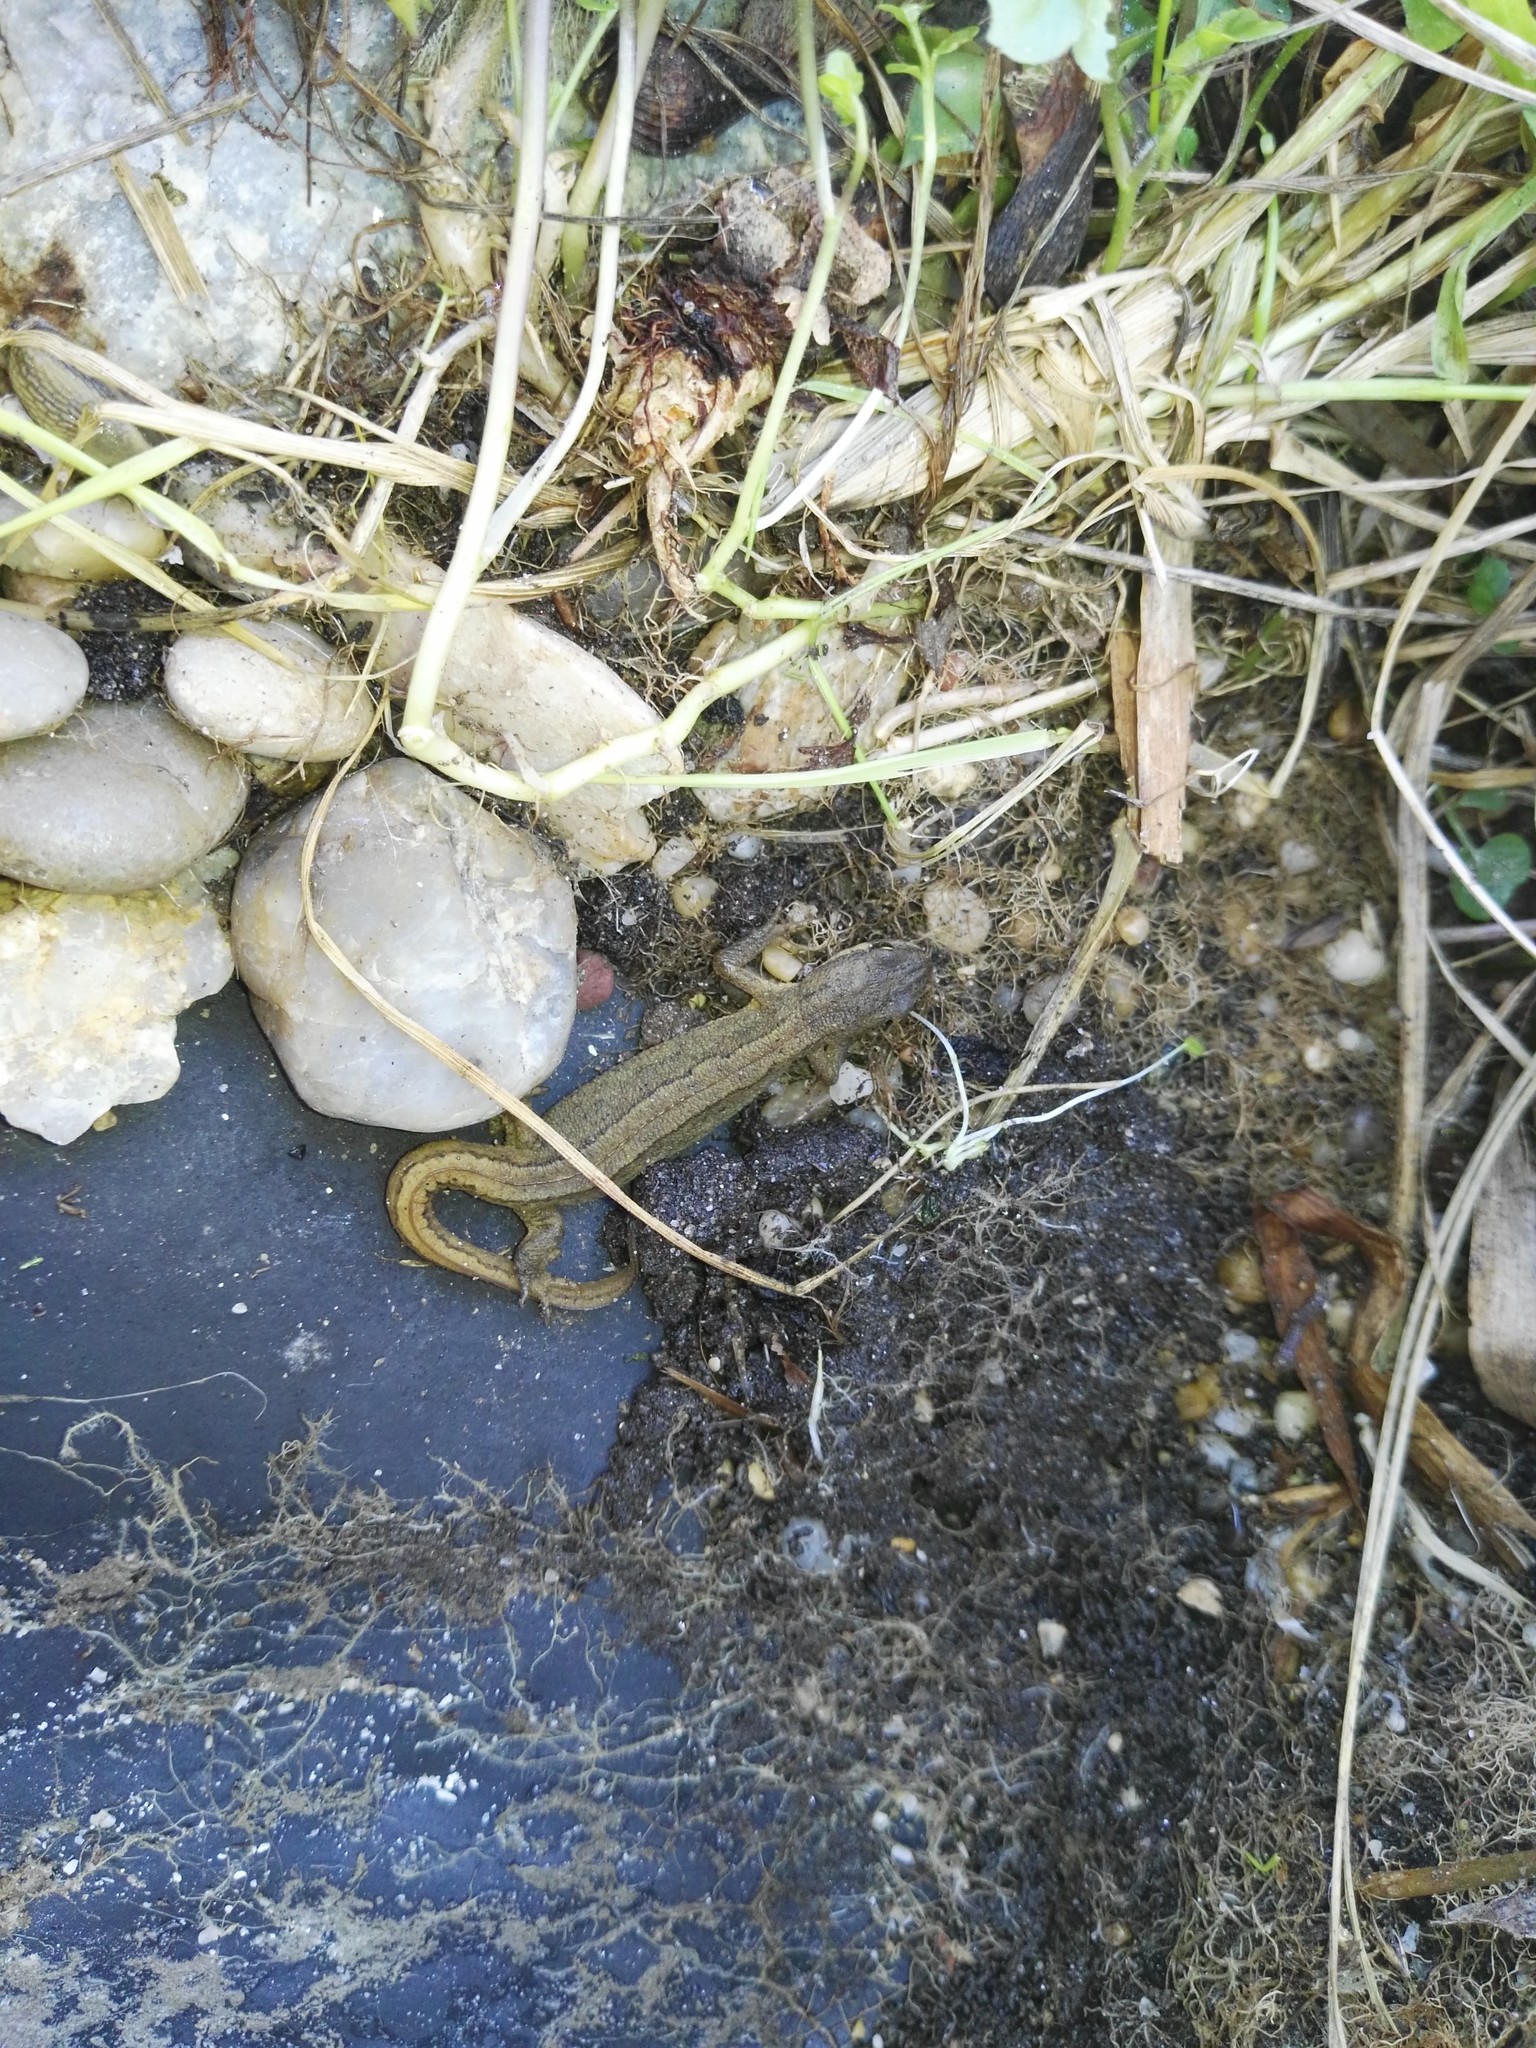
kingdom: Animalia
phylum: Chordata
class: Amphibia
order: Caudata
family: Salamandridae
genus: Lissotriton
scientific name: Lissotriton vulgaris
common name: Smooth newt
